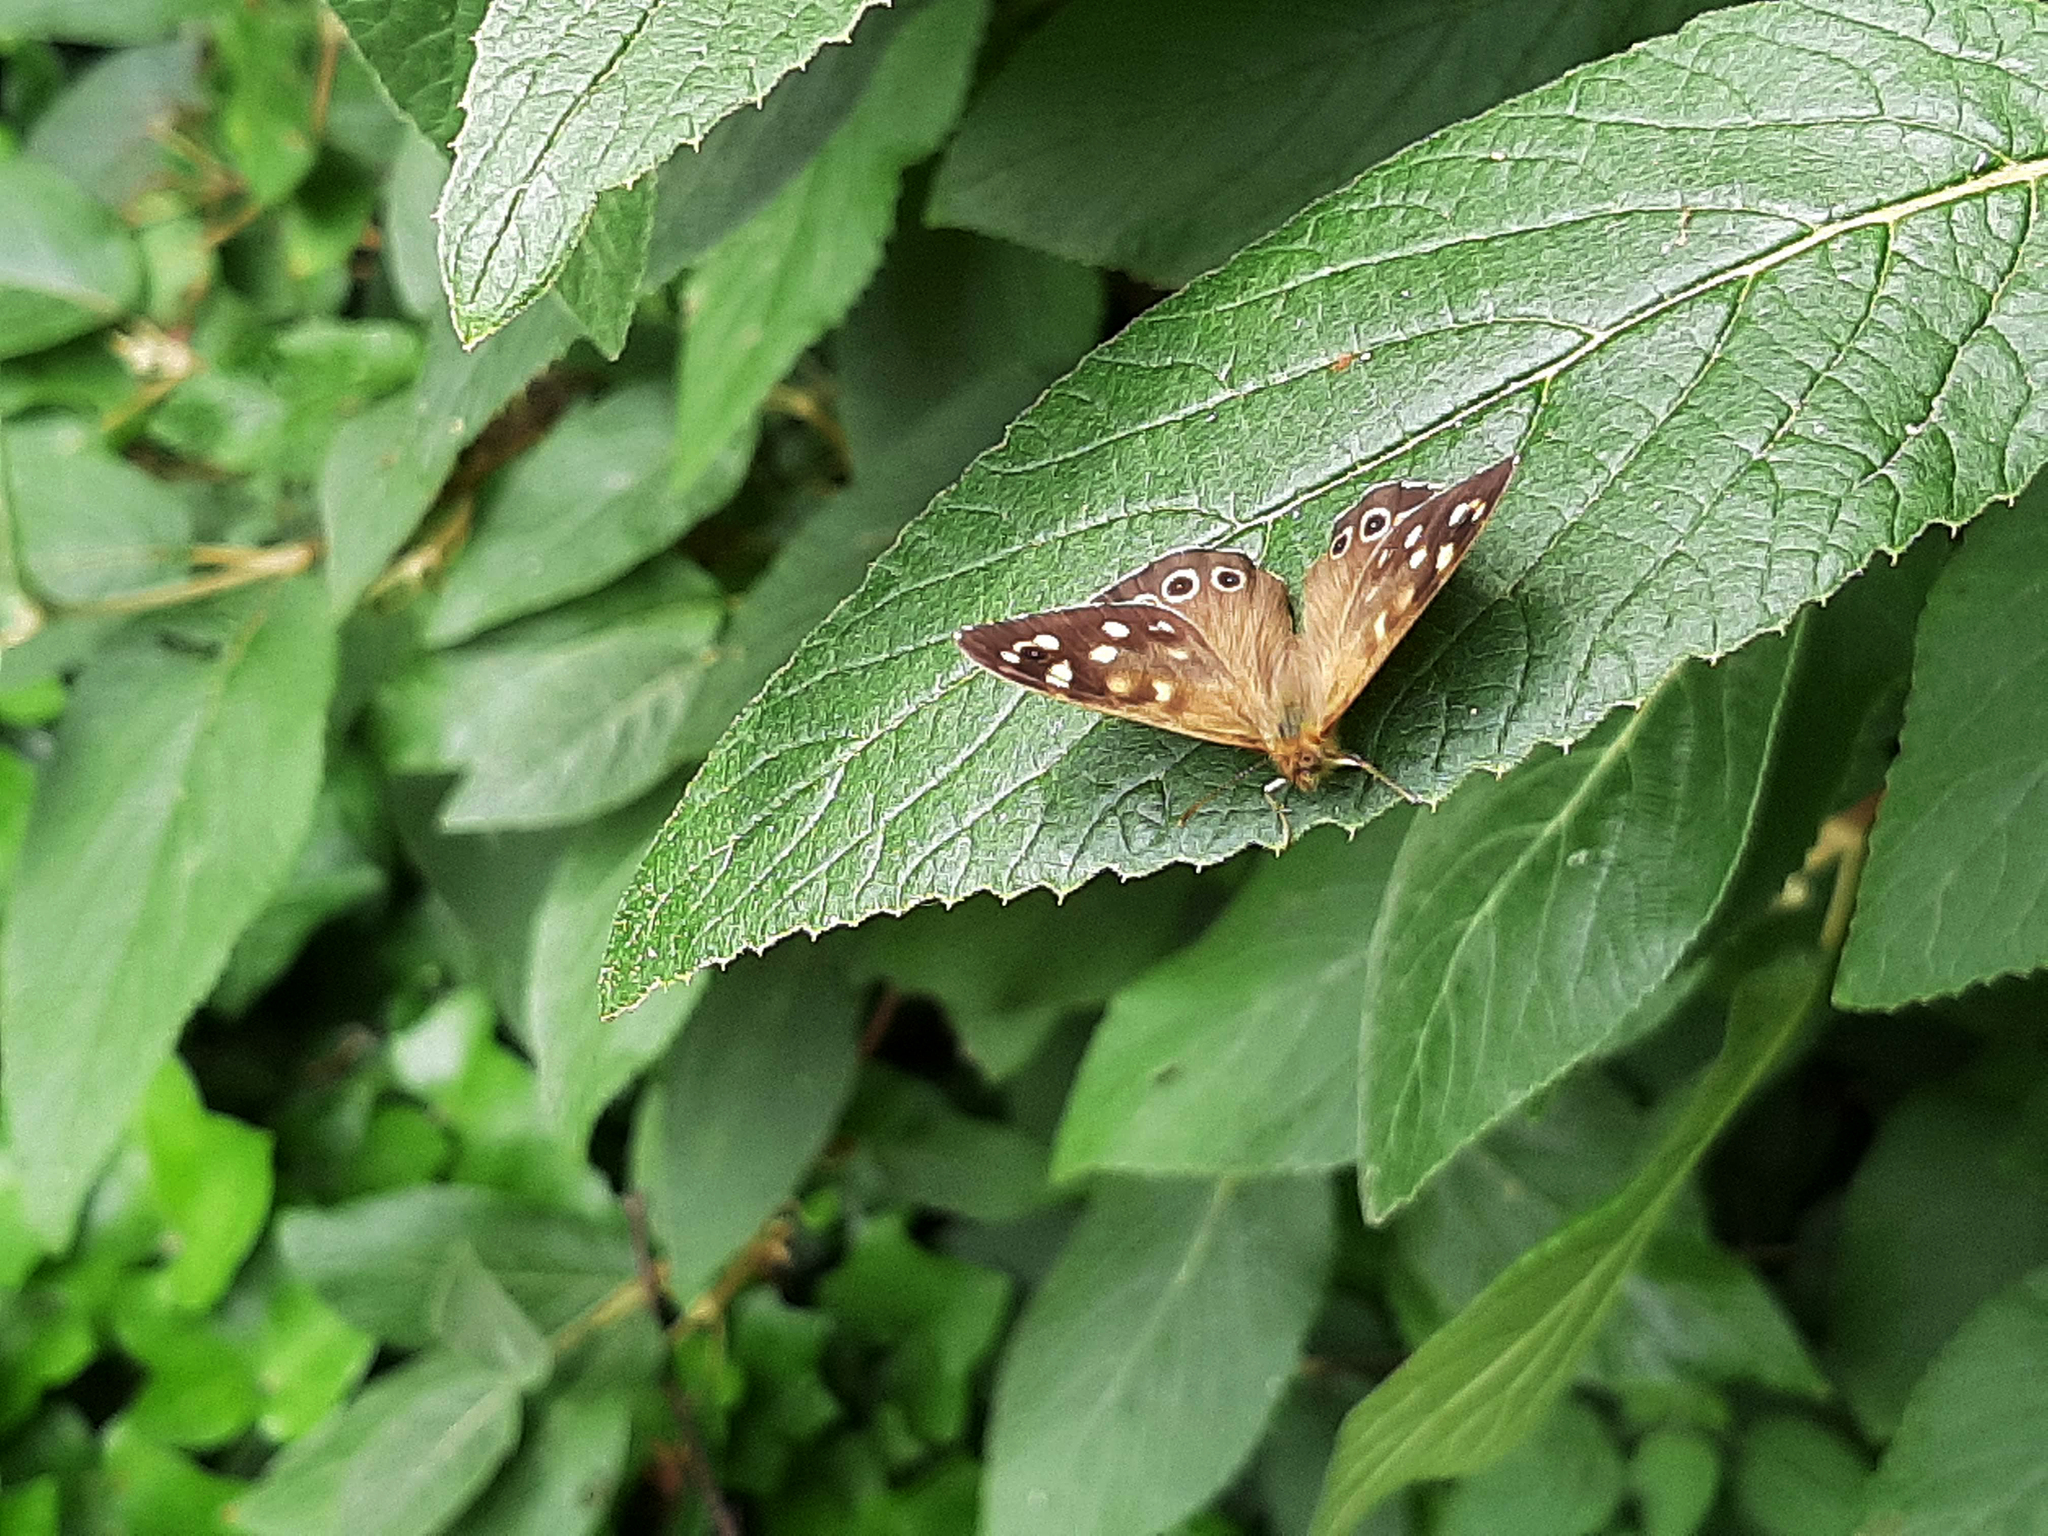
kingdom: Animalia
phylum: Arthropoda
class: Insecta
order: Lepidoptera
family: Nymphalidae
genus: Pararge
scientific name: Pararge aegeria
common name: Speckled wood
